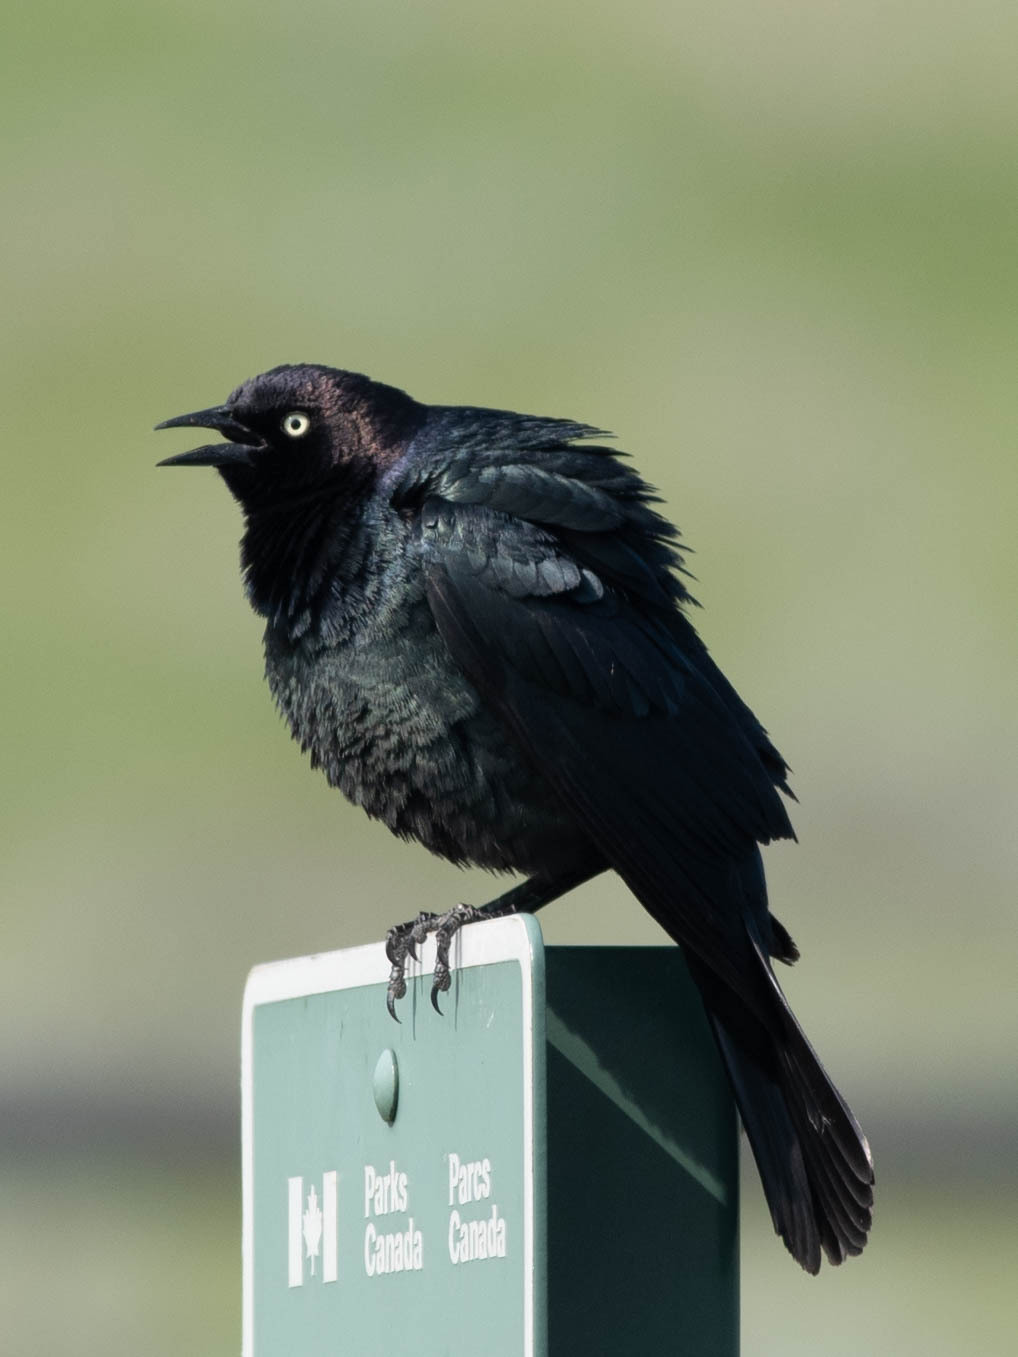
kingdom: Animalia
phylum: Chordata
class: Aves
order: Passeriformes
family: Icteridae
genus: Euphagus
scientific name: Euphagus cyanocephalus
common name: Brewer's blackbird
